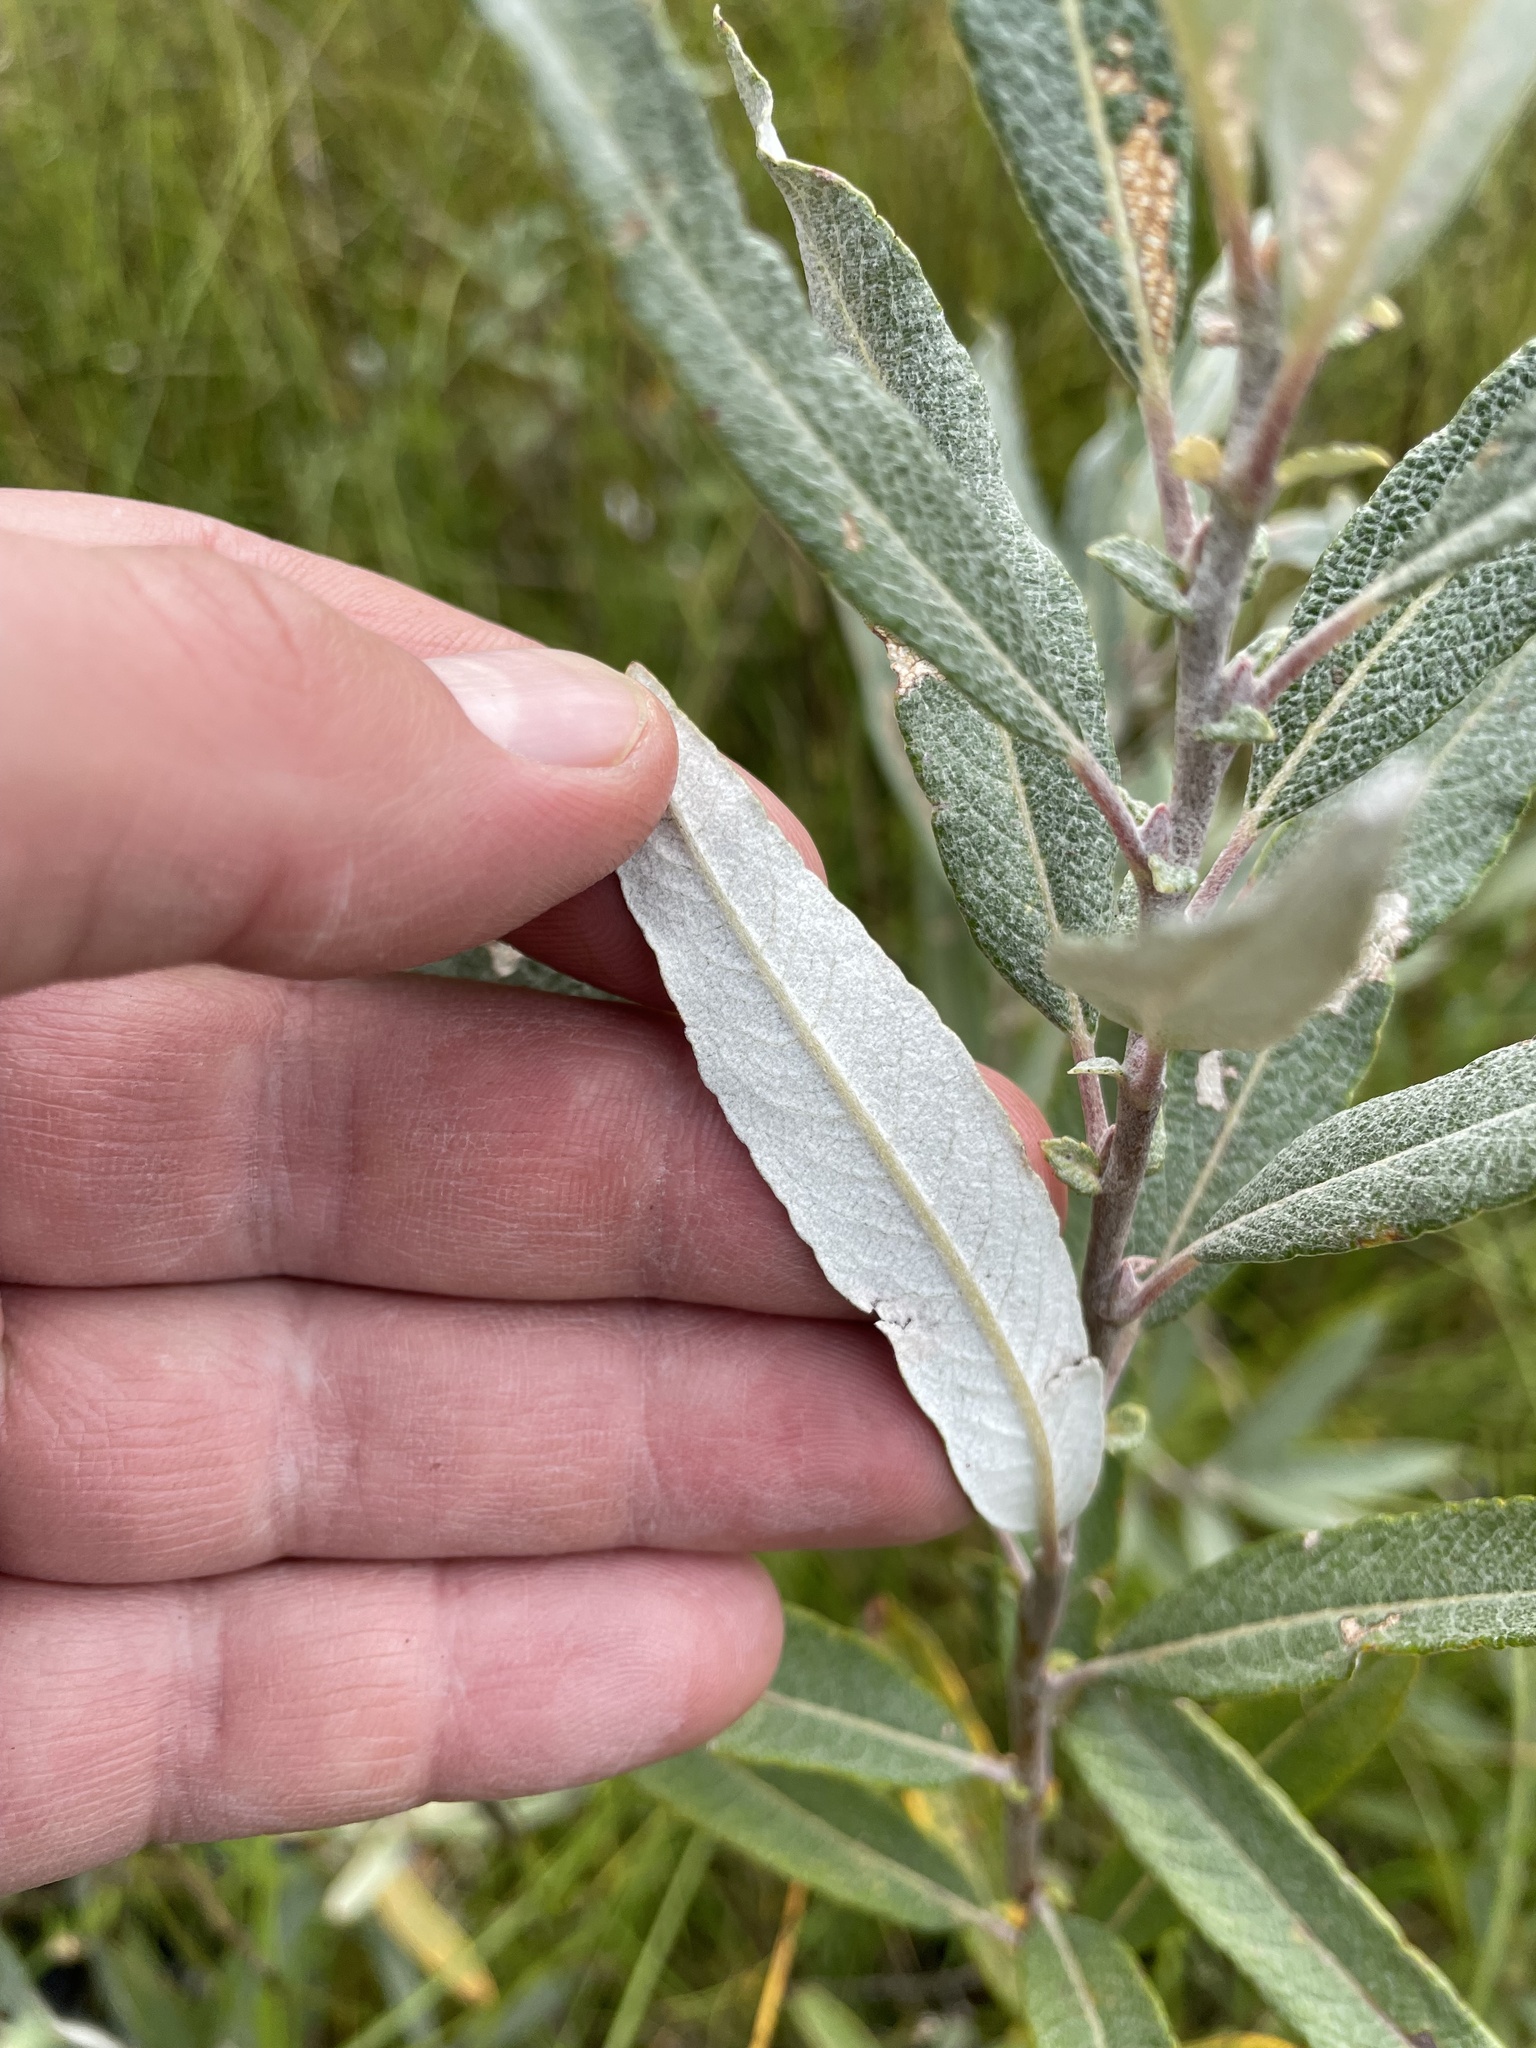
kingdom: Plantae
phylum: Tracheophyta
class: Magnoliopsida
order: Malpighiales
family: Salicaceae
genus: Salix
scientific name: Salix candida
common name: Hoary willow
